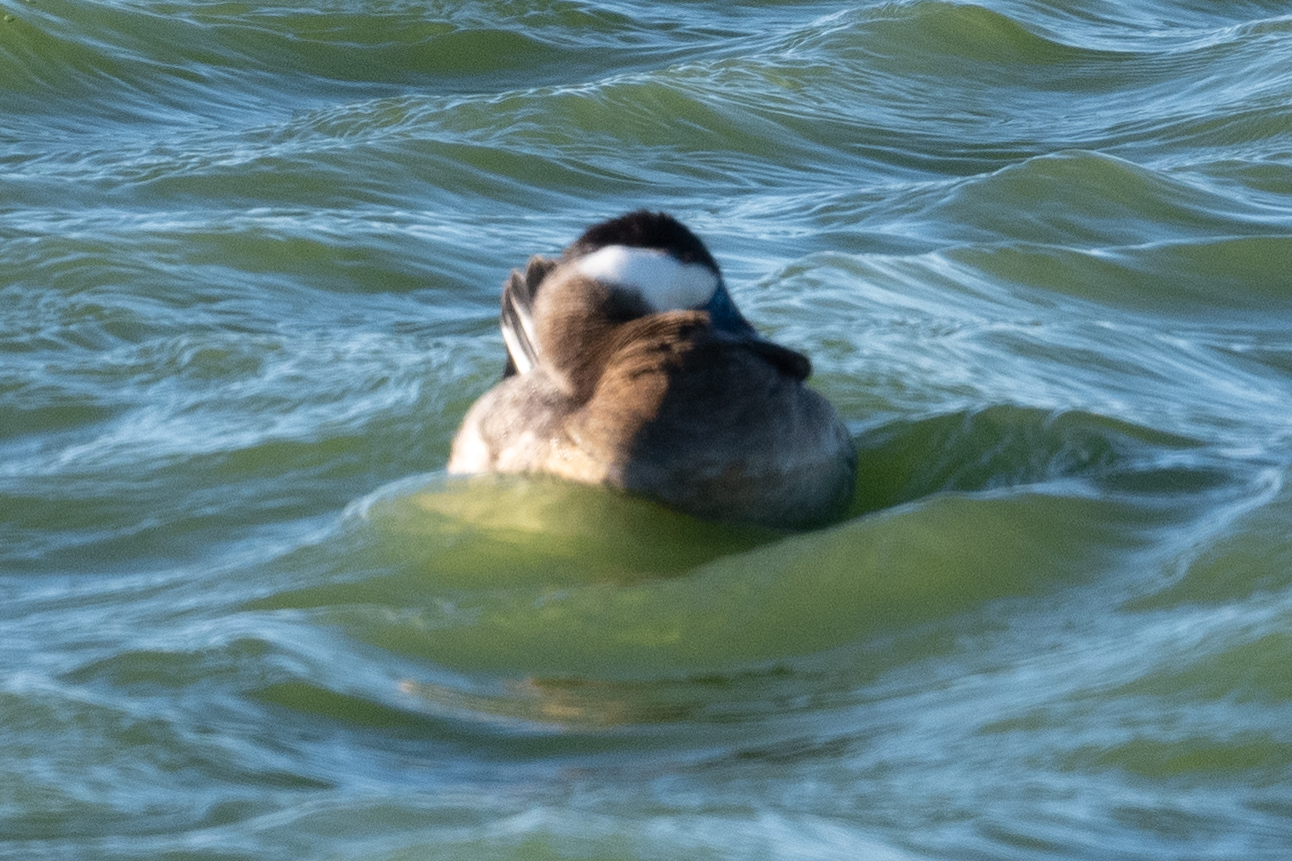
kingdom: Animalia
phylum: Chordata
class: Aves
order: Anseriformes
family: Anatidae
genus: Oxyura
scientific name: Oxyura jamaicensis
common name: Ruddy duck
